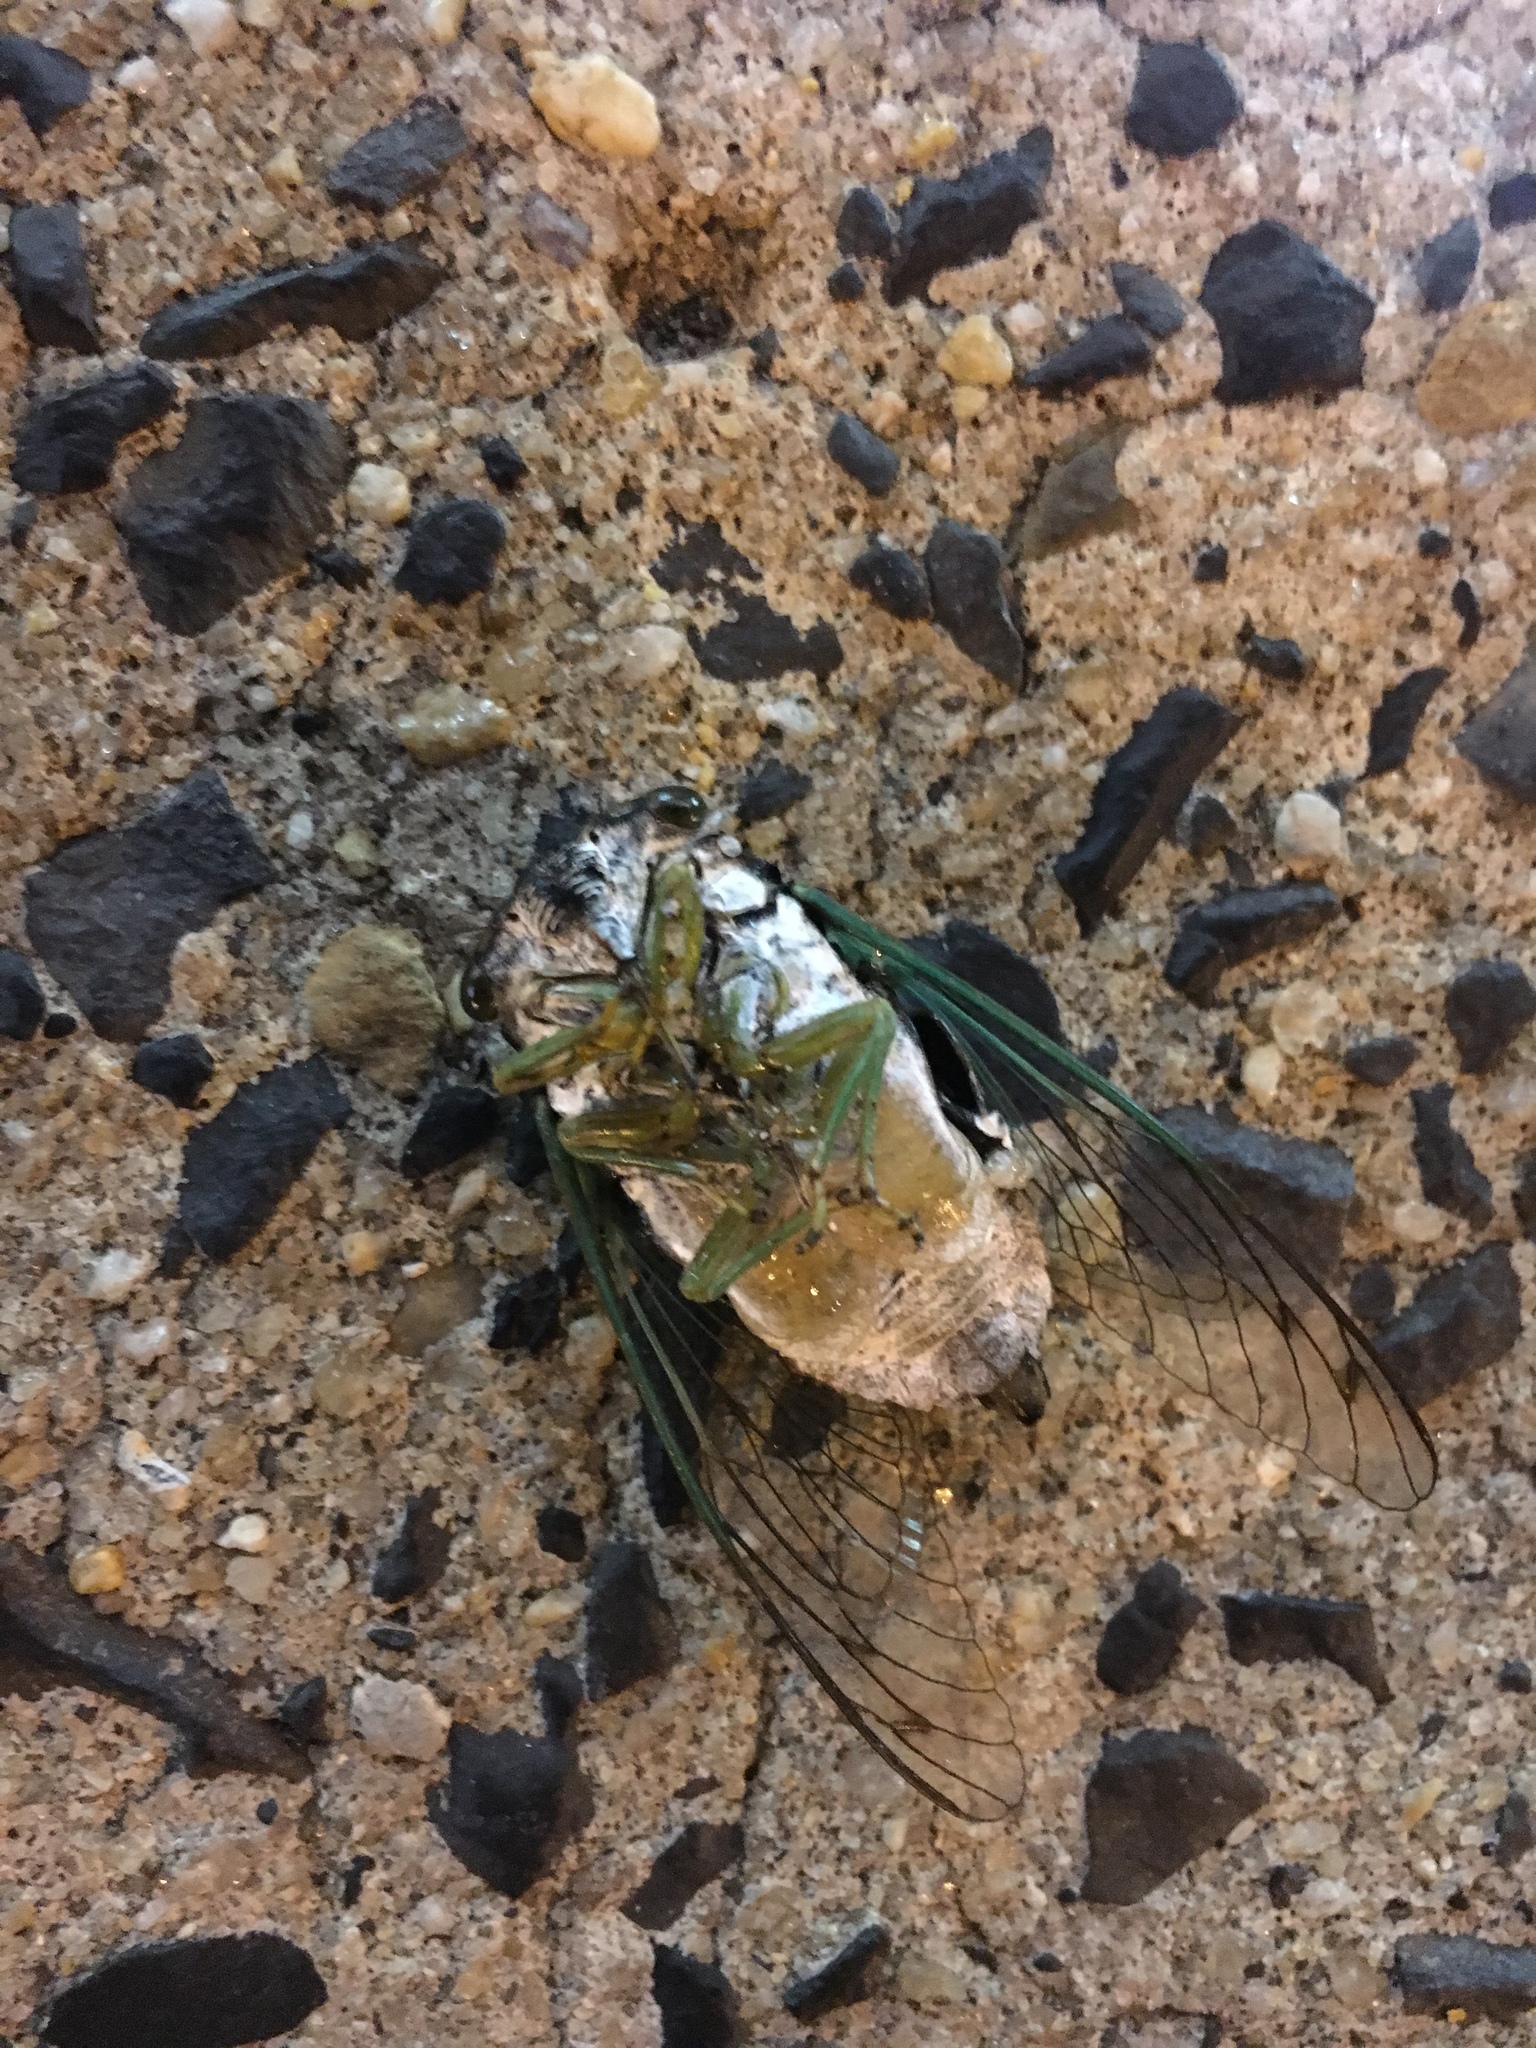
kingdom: Animalia
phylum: Arthropoda
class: Insecta
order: Hemiptera
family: Cicadidae
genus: Neotibicen
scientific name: Neotibicen tibicen
